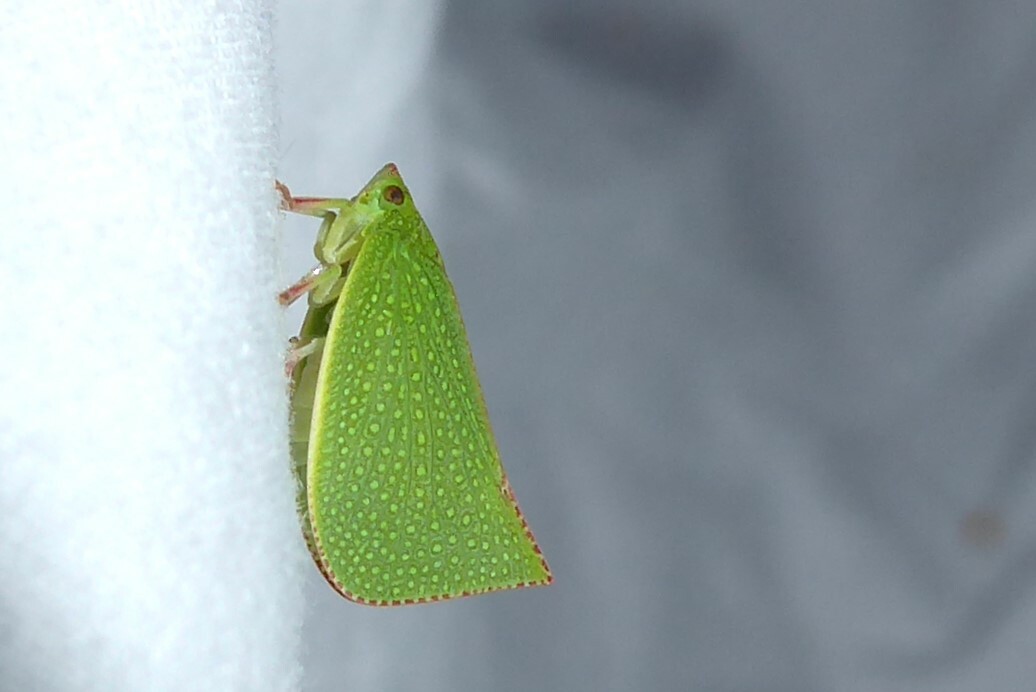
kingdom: Animalia
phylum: Arthropoda
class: Insecta
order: Hemiptera
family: Flatidae
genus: Siphanta
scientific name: Siphanta acuta
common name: Torpedo bug
